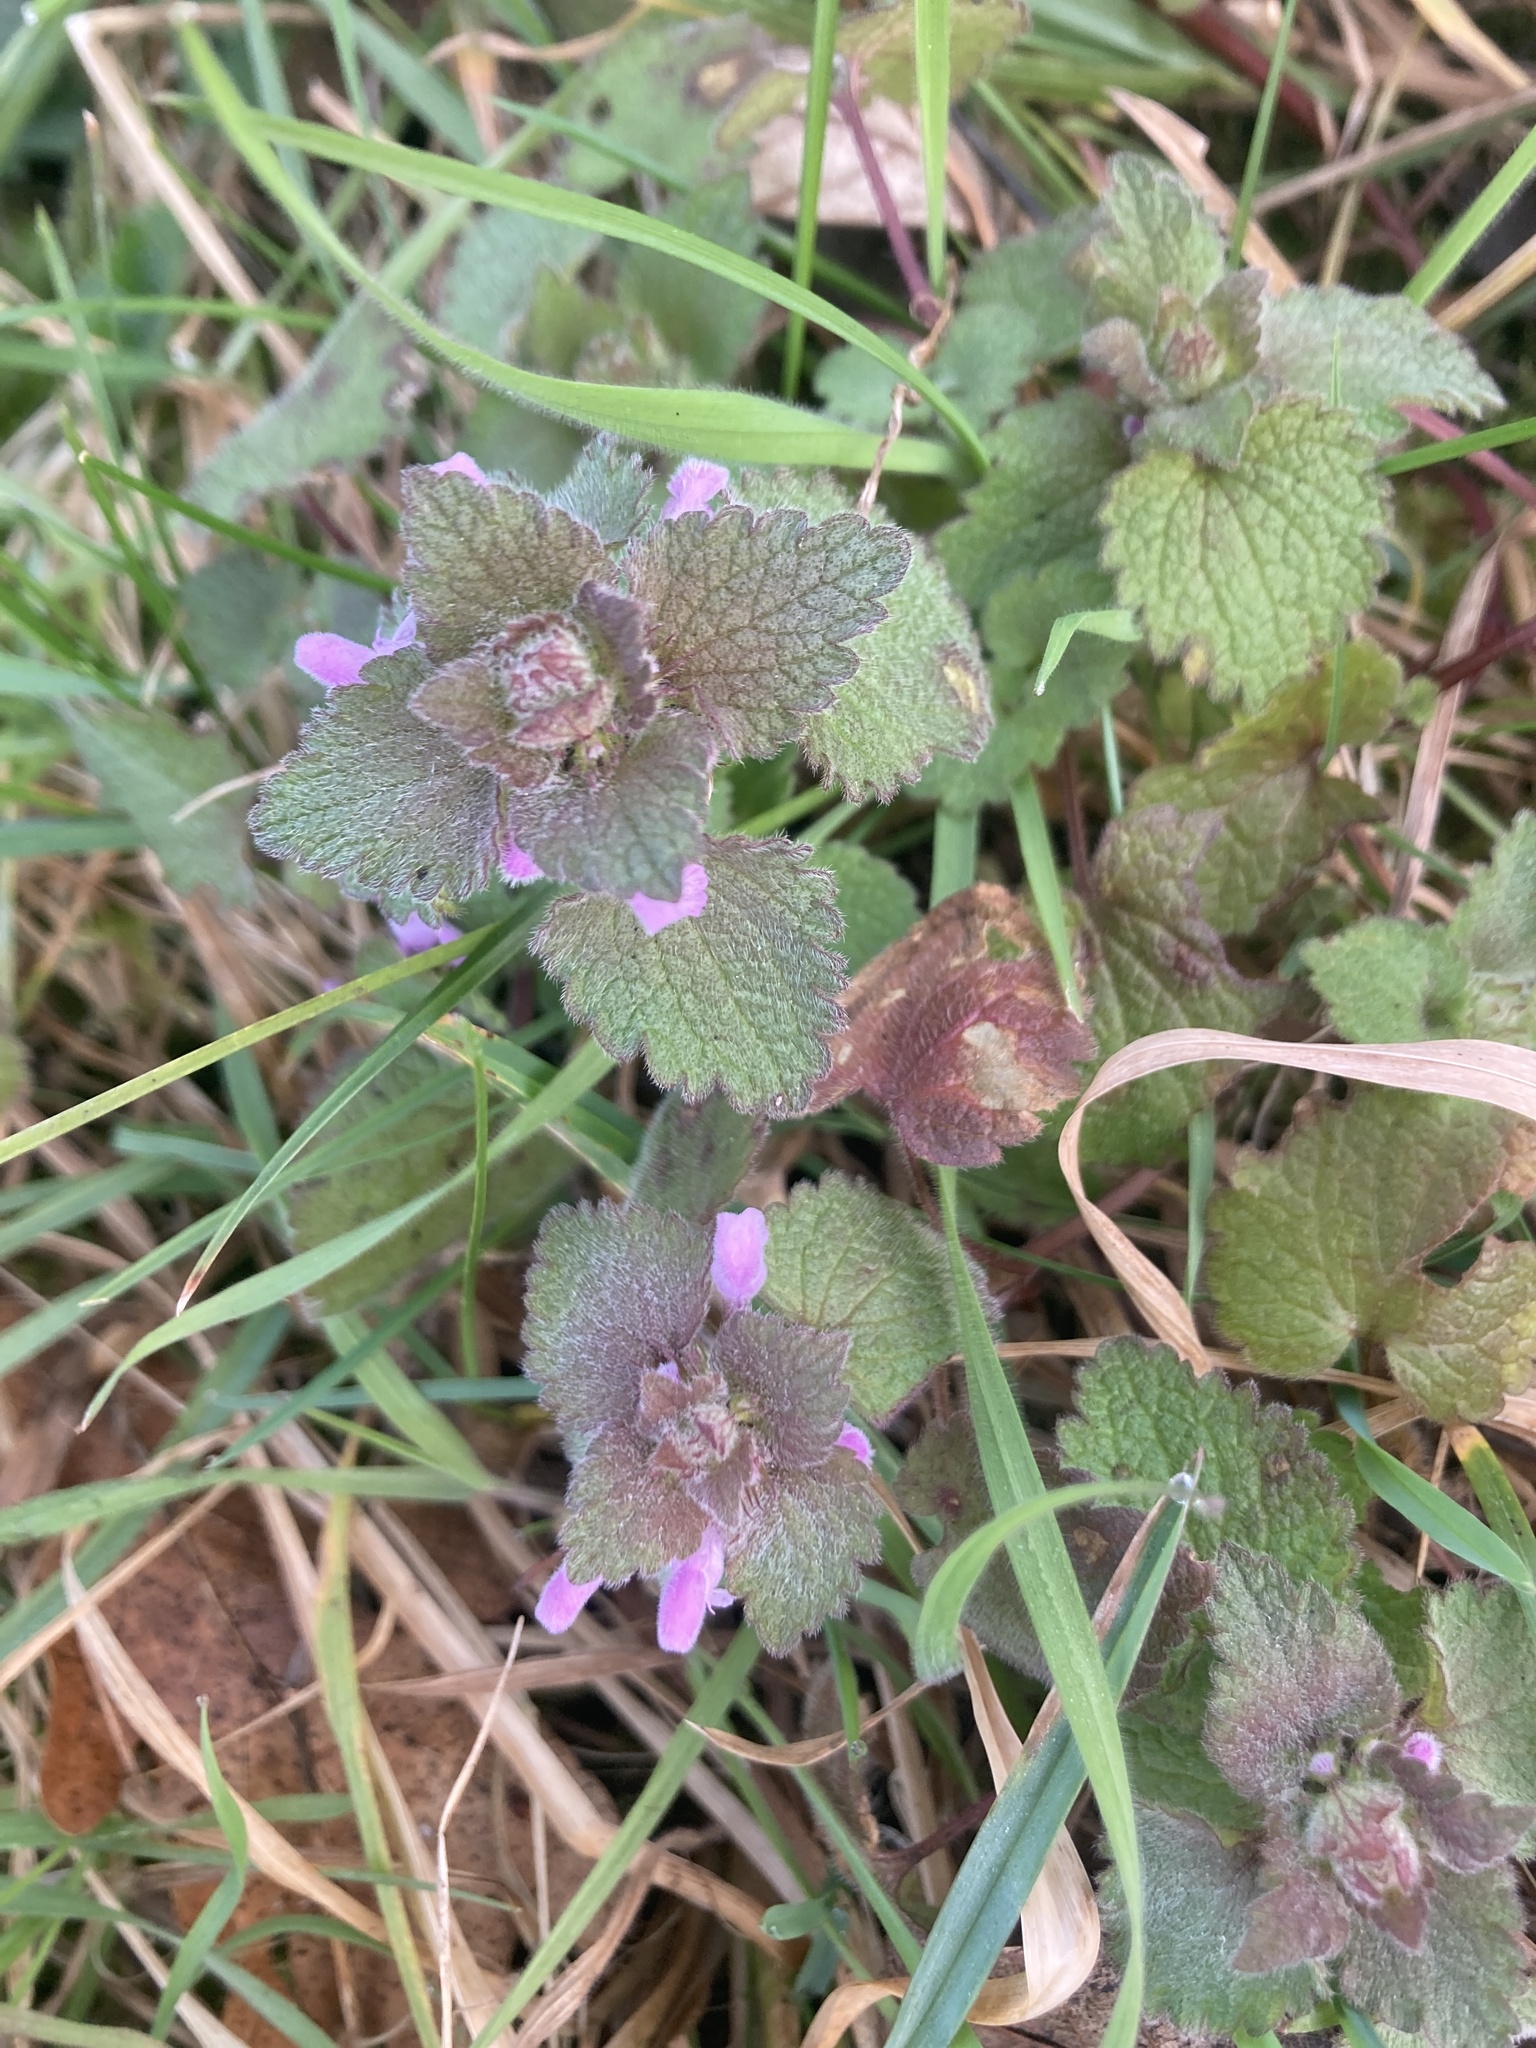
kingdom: Plantae
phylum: Tracheophyta
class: Magnoliopsida
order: Lamiales
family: Lamiaceae
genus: Lamium
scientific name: Lamium purpureum
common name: Red dead-nettle
